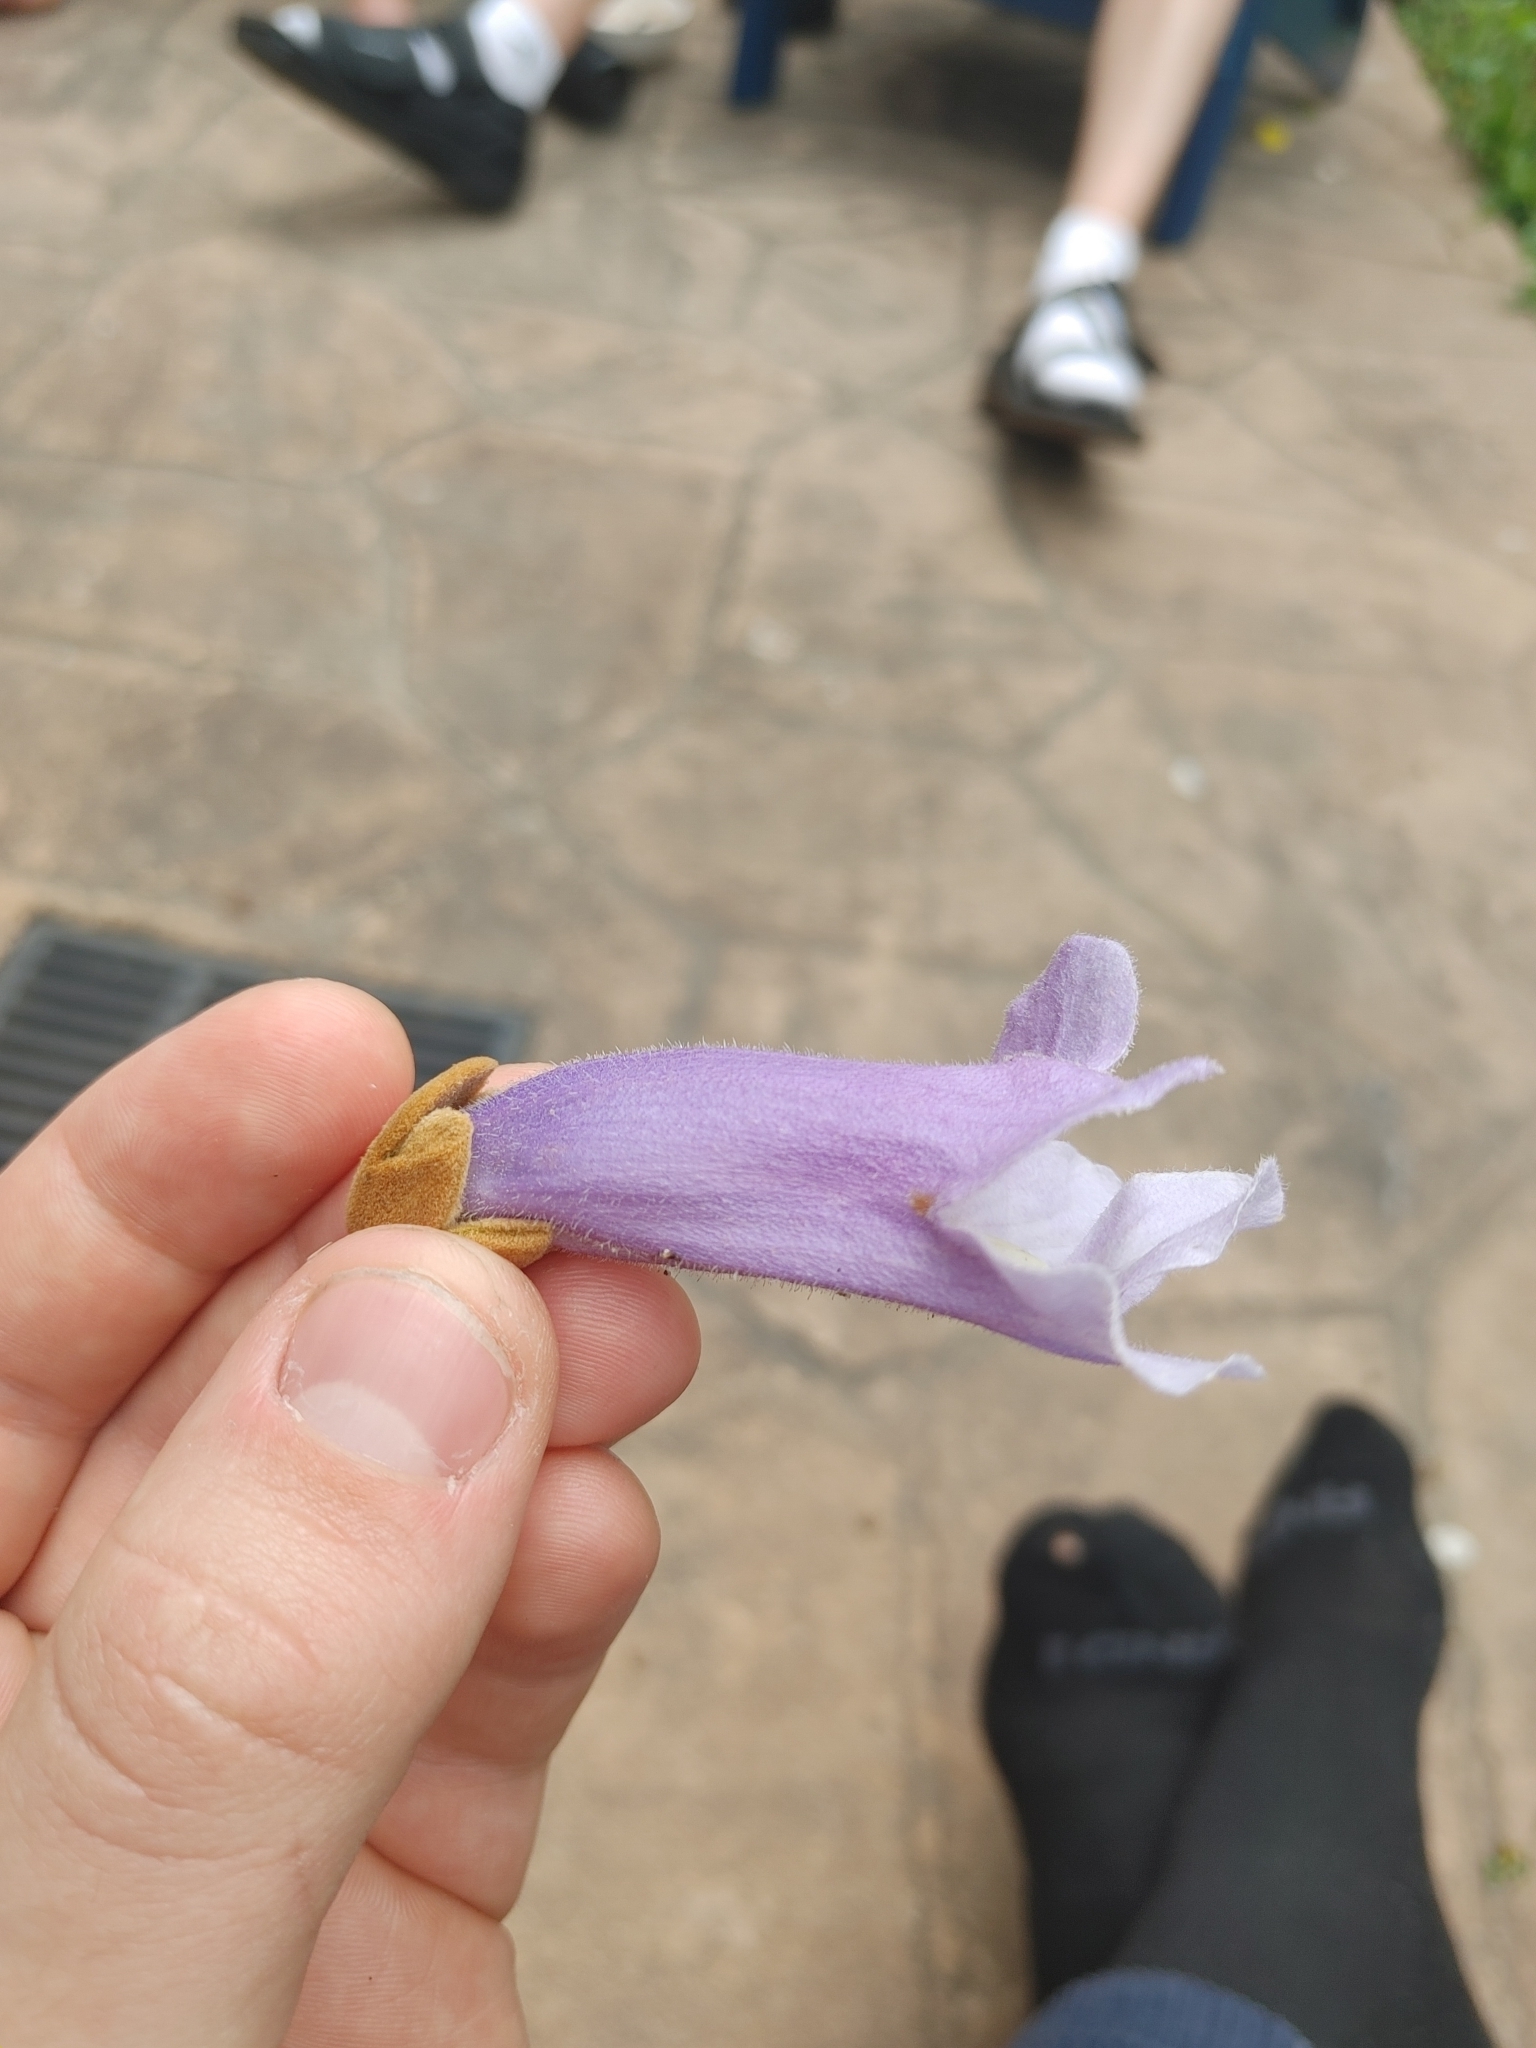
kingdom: Plantae
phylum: Tracheophyta
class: Magnoliopsida
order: Lamiales
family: Paulowniaceae
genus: Paulownia
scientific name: Paulownia tomentosa
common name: Foxglove-tree
